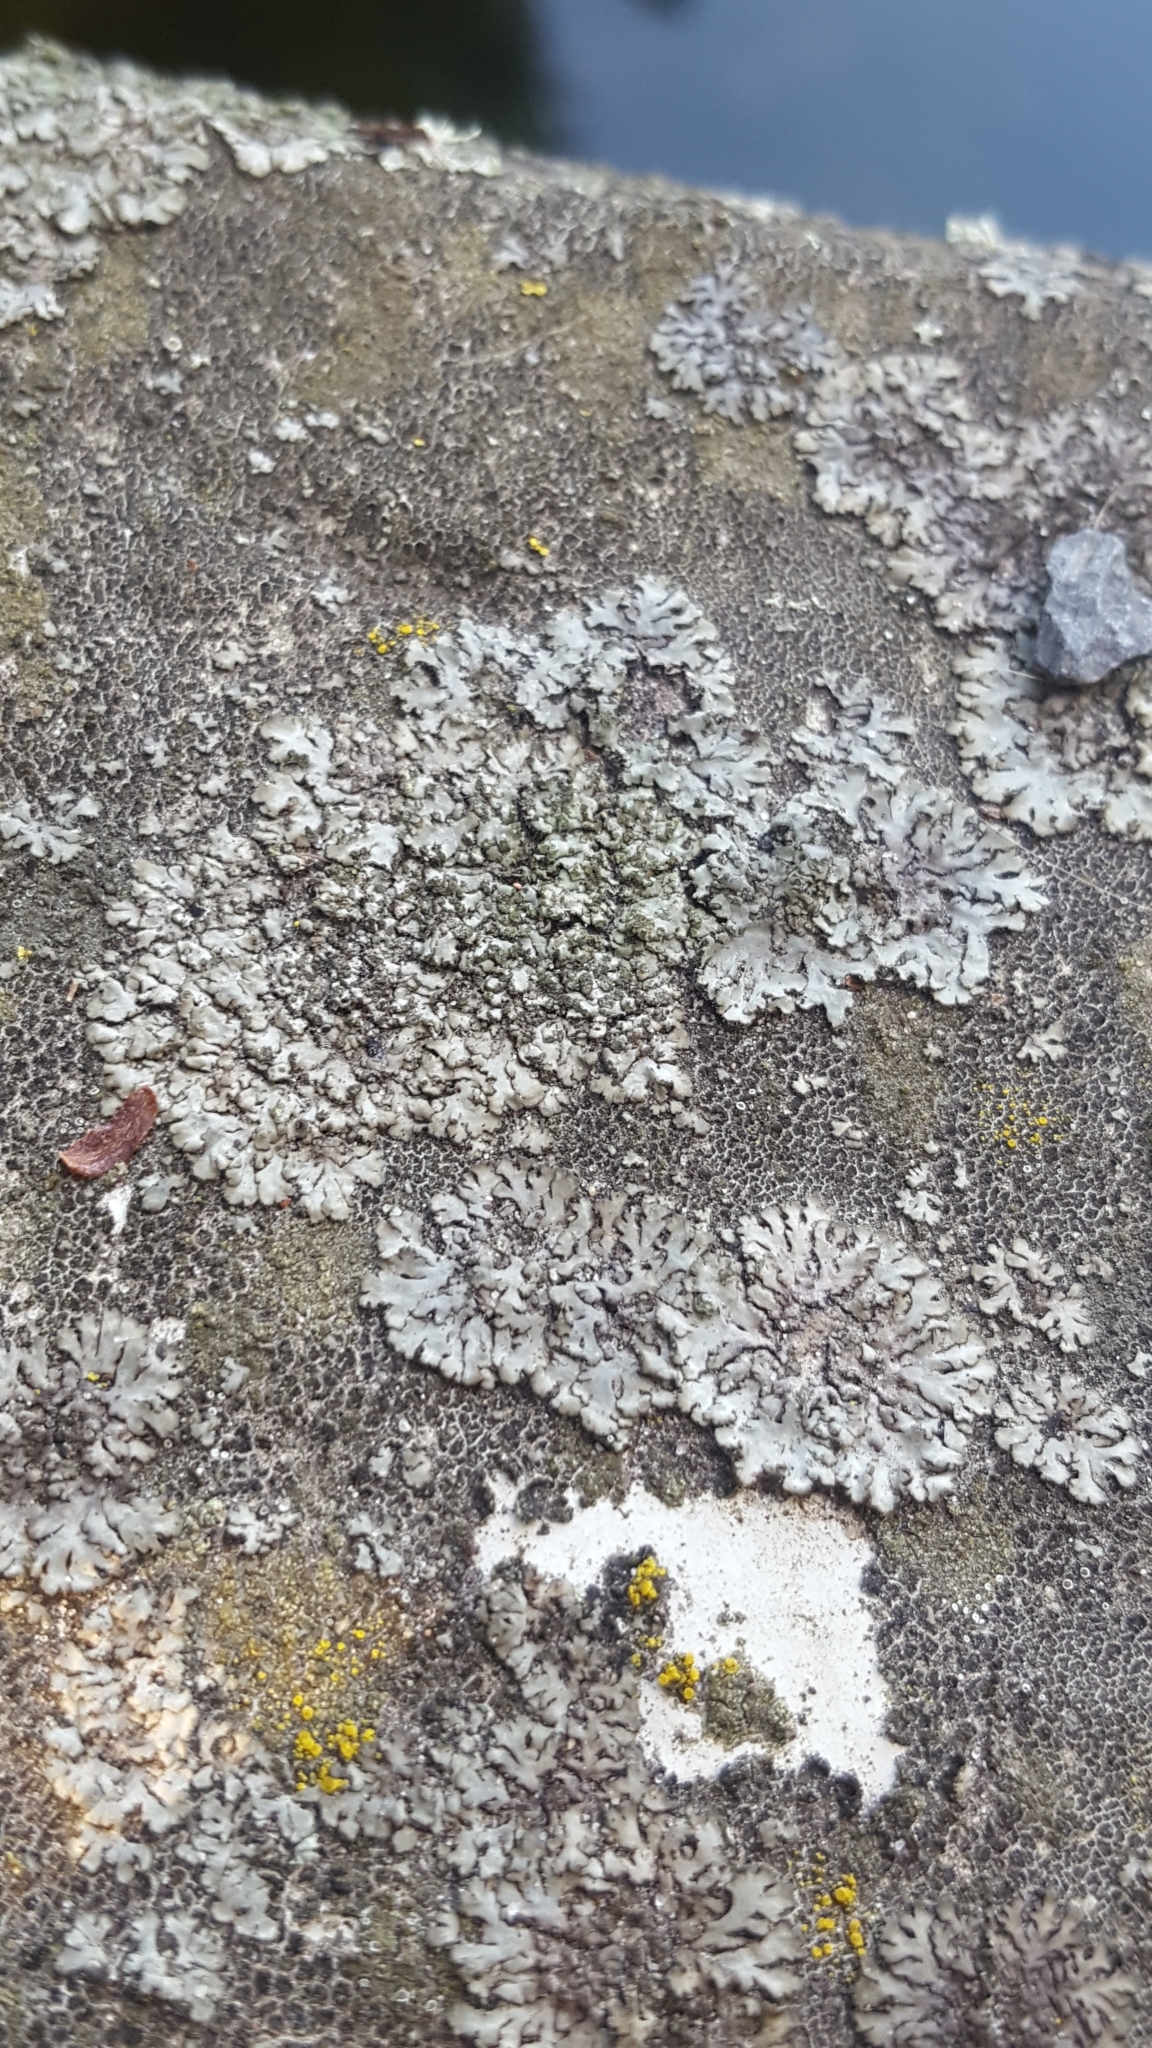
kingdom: Fungi
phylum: Ascomycota
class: Lecanoromycetes
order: Caliciales
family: Physciaceae
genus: Phaeophyscia
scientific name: Phaeophyscia orbicularis
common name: Mealy shadow lichen
